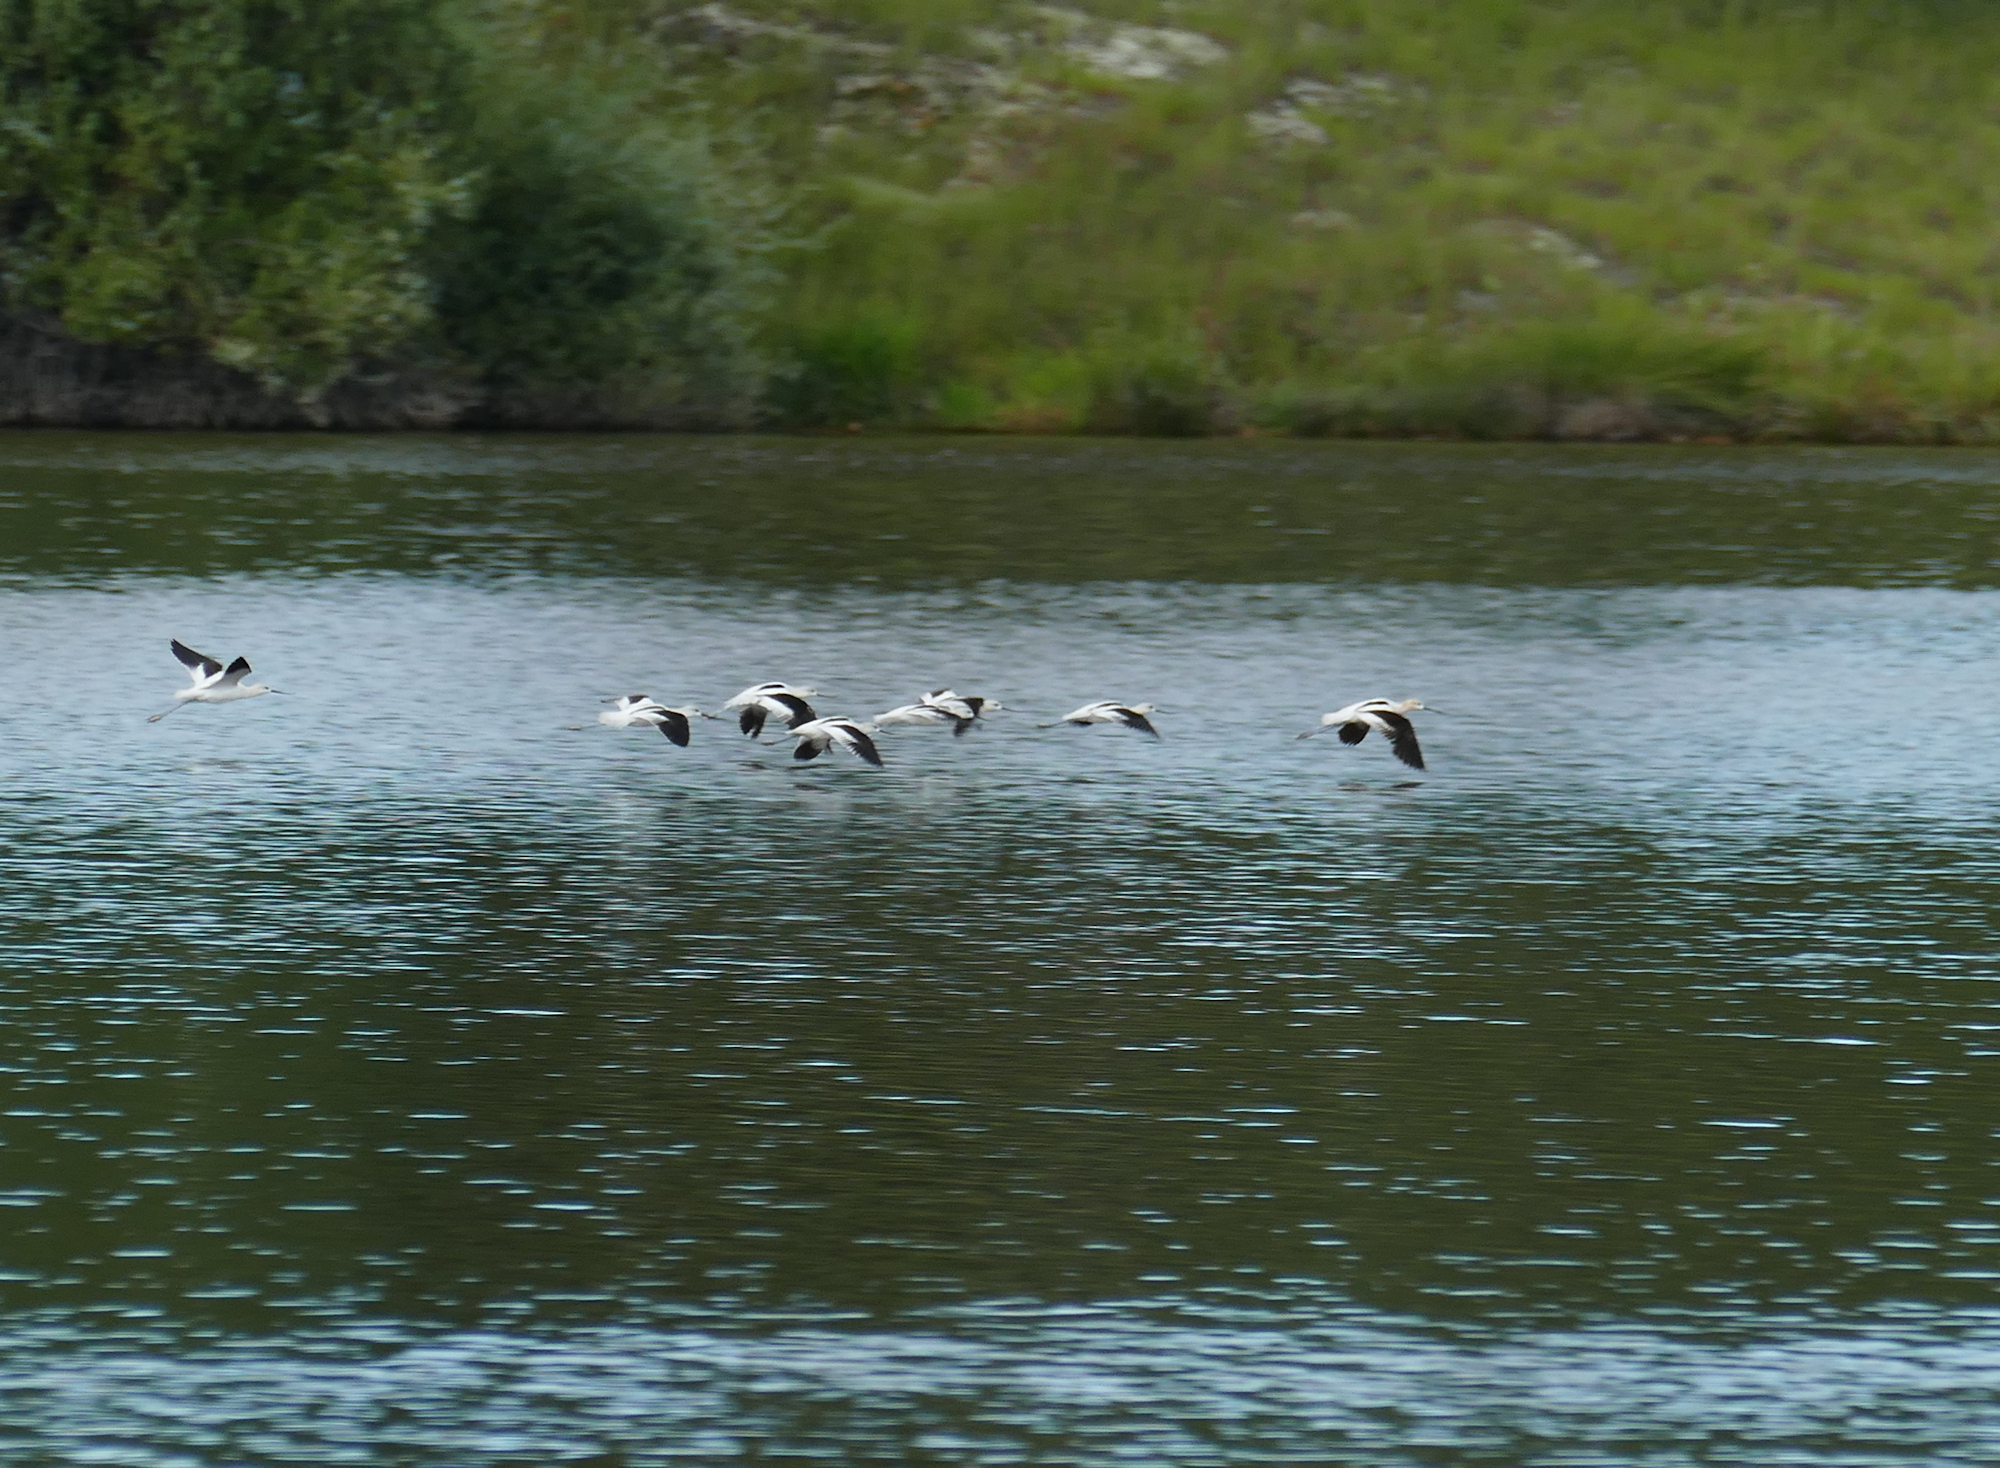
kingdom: Animalia
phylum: Chordata
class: Aves
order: Charadriiformes
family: Recurvirostridae
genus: Recurvirostra
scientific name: Recurvirostra americana
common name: American avocet
